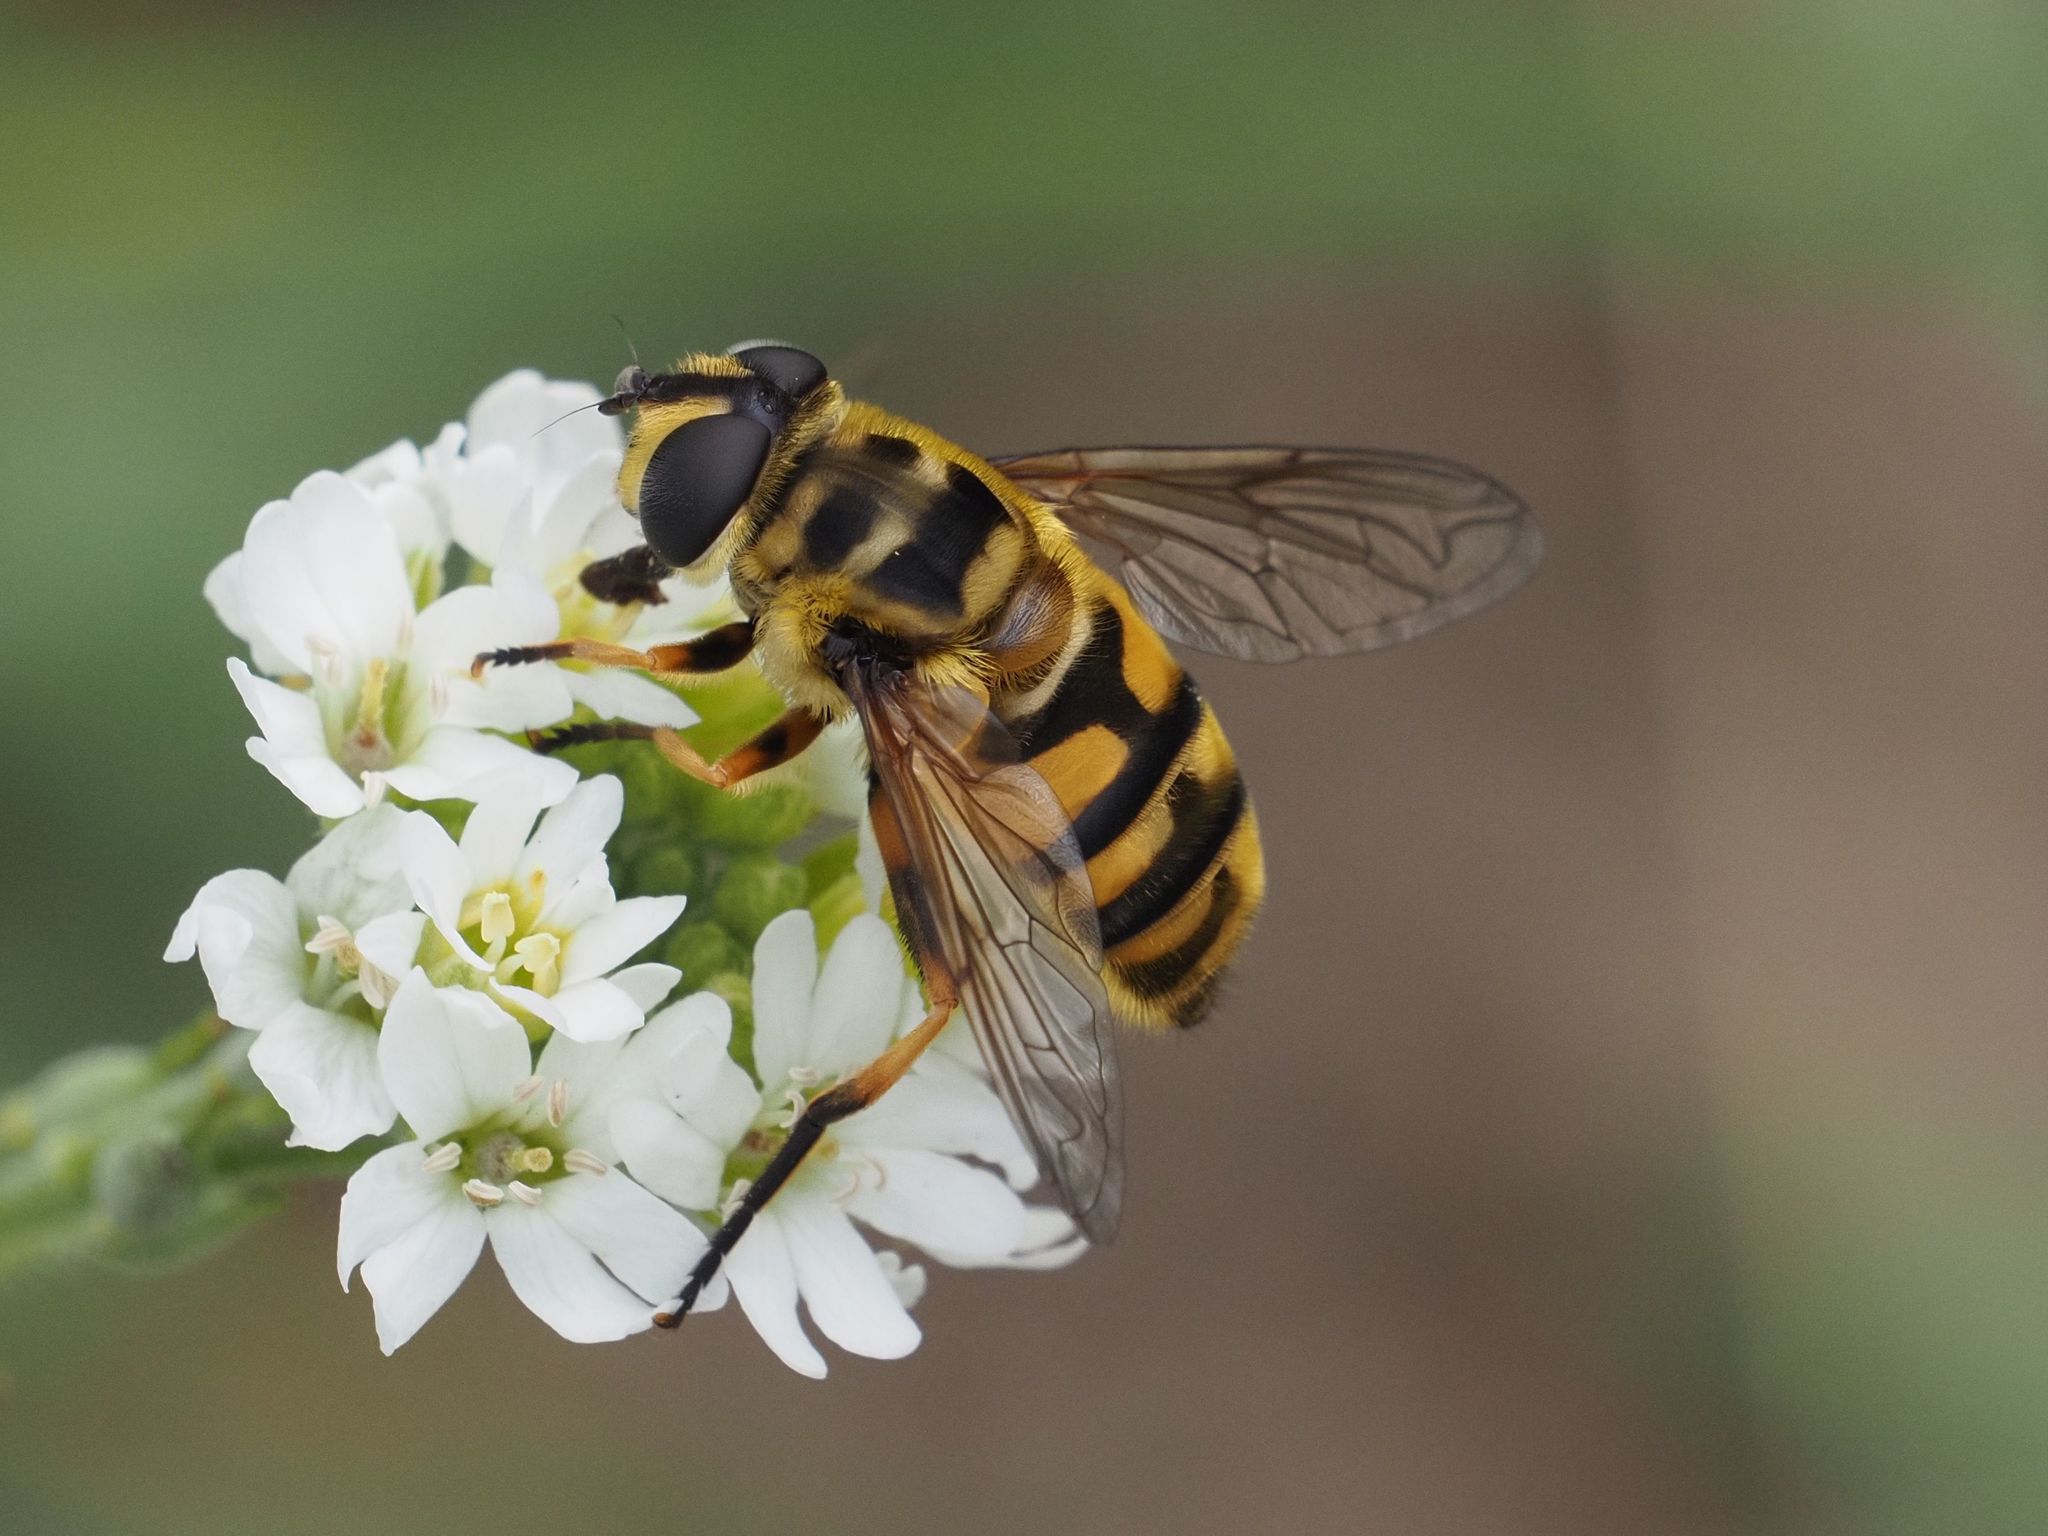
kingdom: Animalia
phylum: Arthropoda
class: Insecta
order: Diptera
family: Syrphidae
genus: Myathropa
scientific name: Myathropa florea
